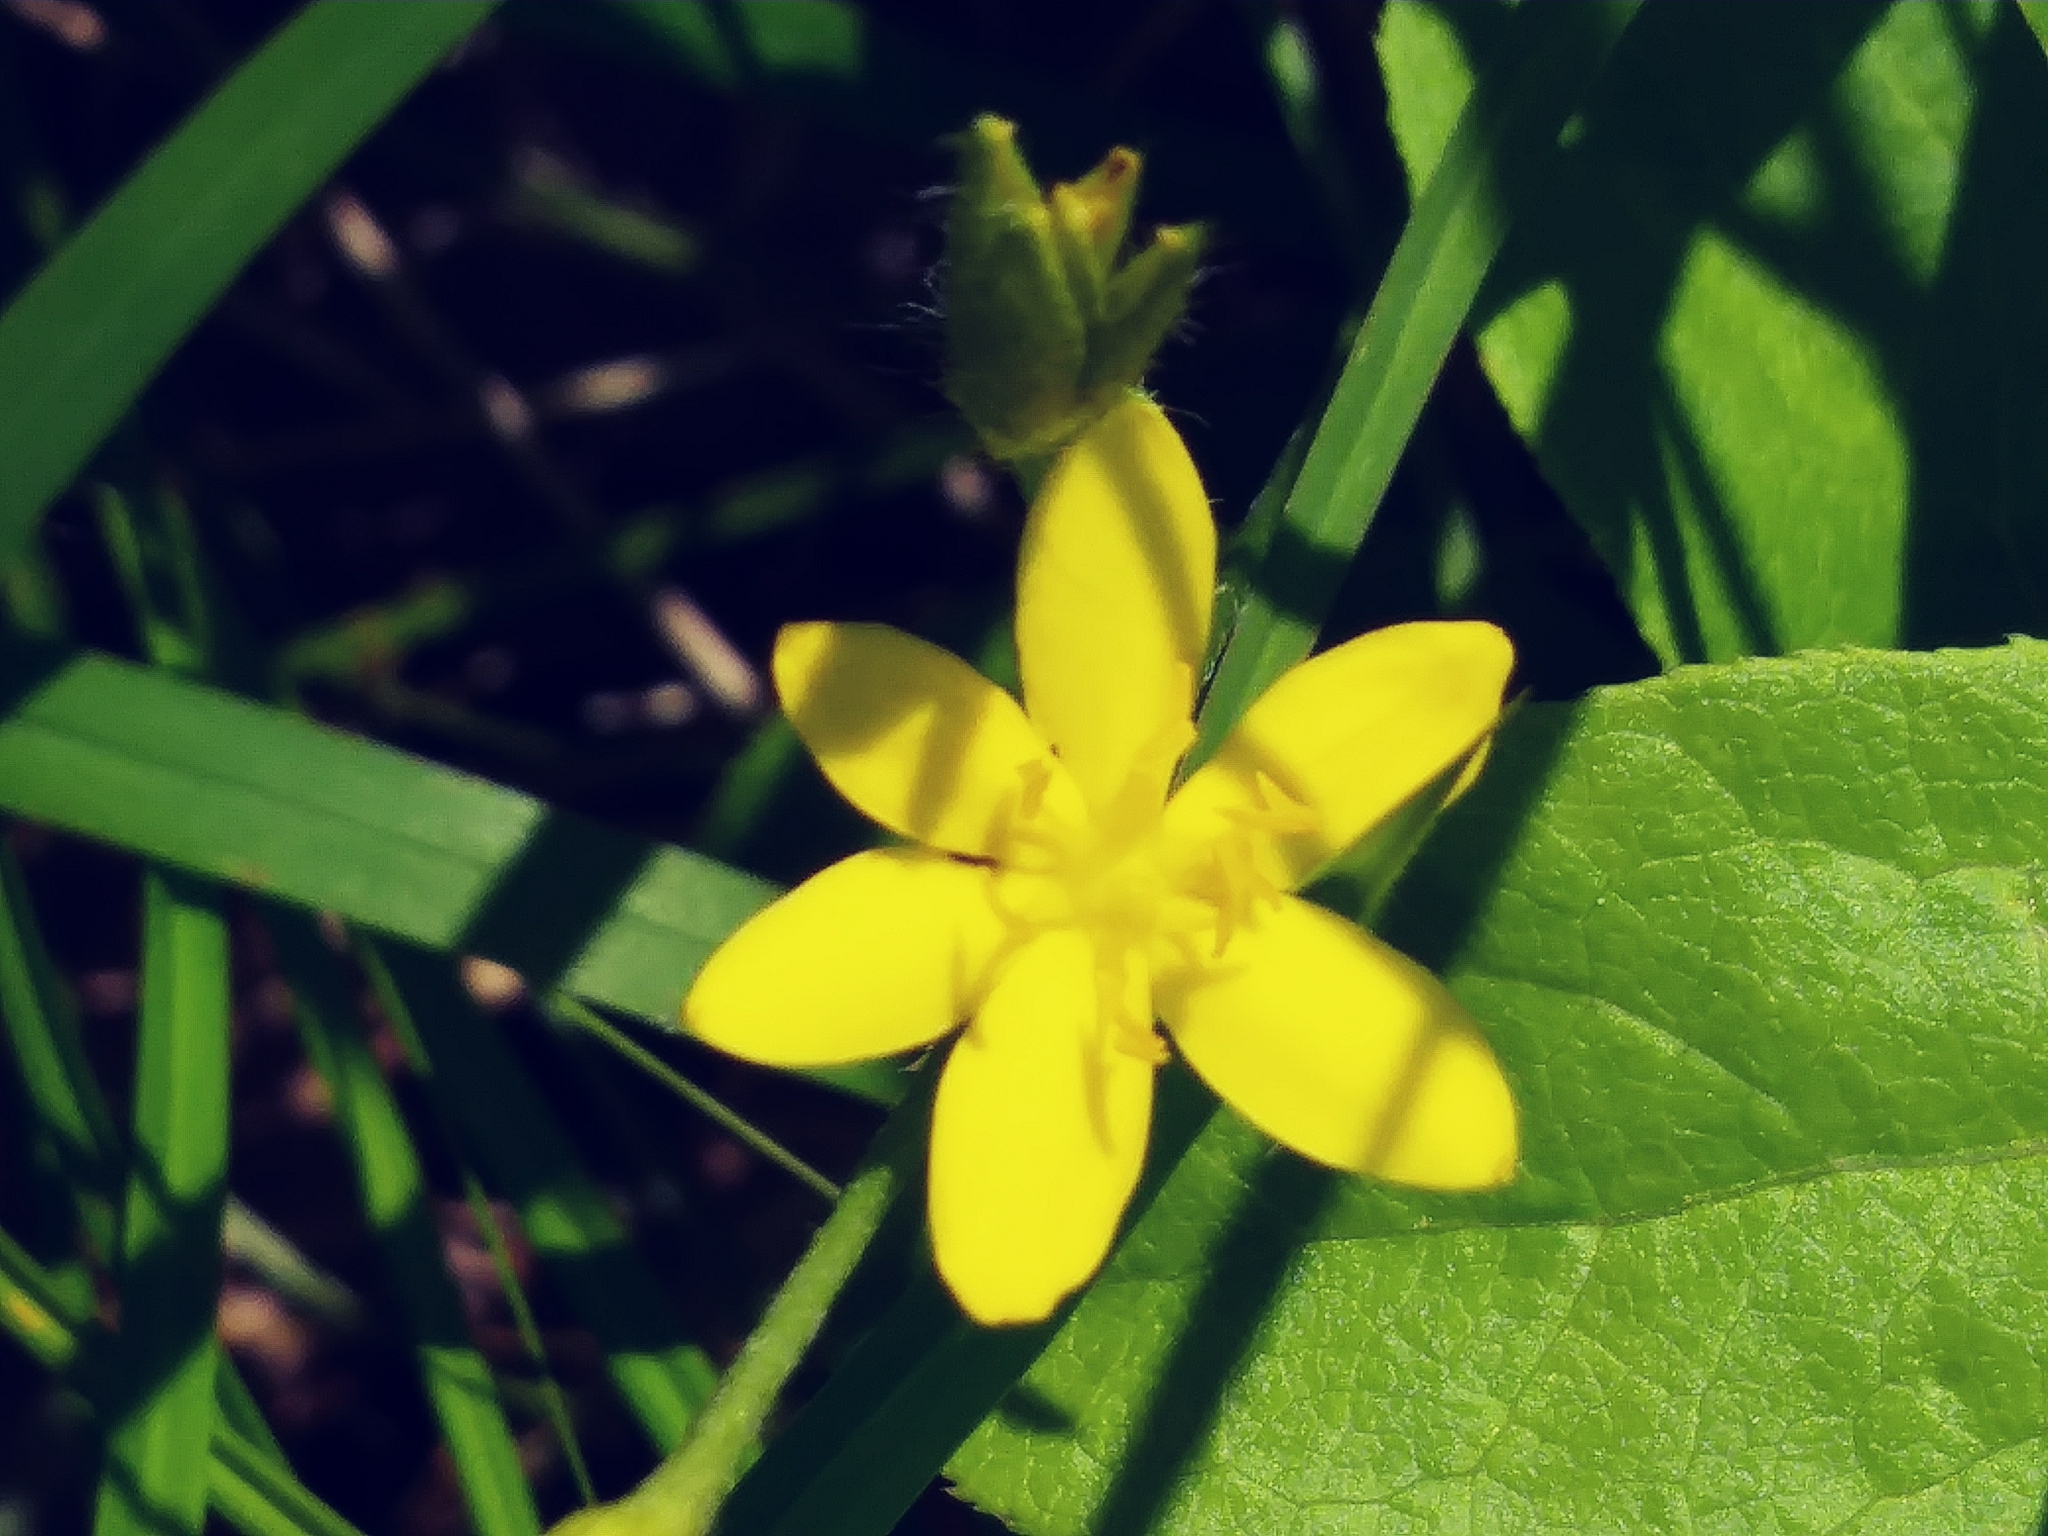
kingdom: Plantae
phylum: Tracheophyta
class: Liliopsida
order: Asparagales
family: Hypoxidaceae
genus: Hypoxis
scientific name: Hypoxis hirsuta
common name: Common goldstar
